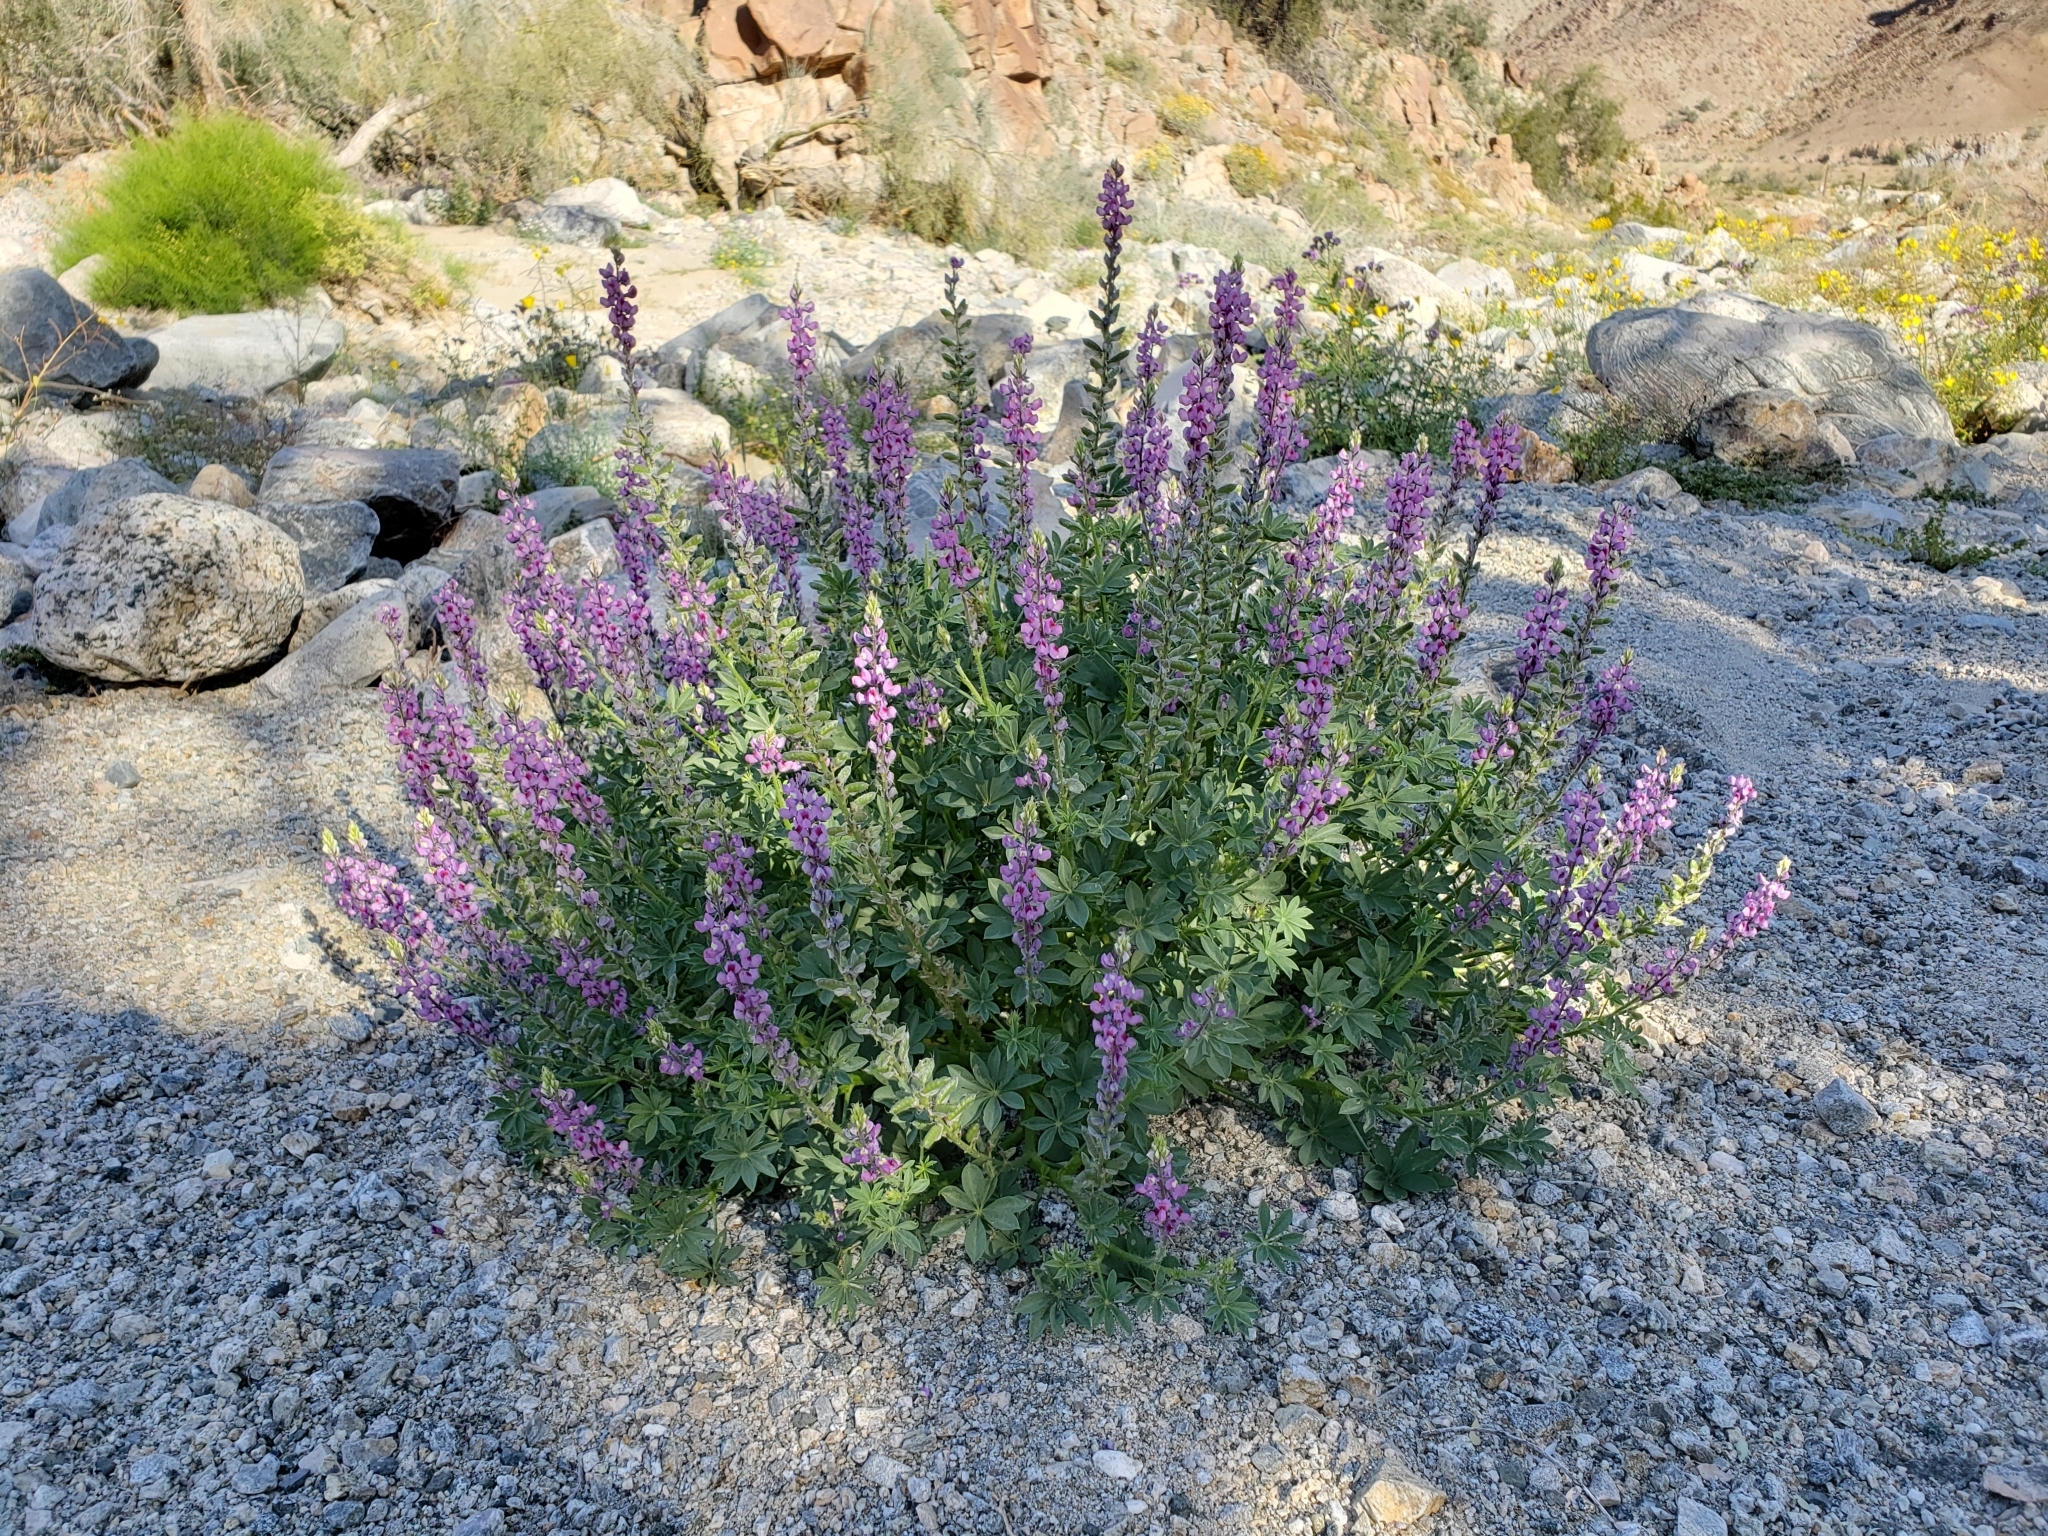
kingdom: Plantae
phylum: Tracheophyta
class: Magnoliopsida
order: Fabales
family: Fabaceae
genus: Lupinus
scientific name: Lupinus arizonicus
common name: Arizona lupine
